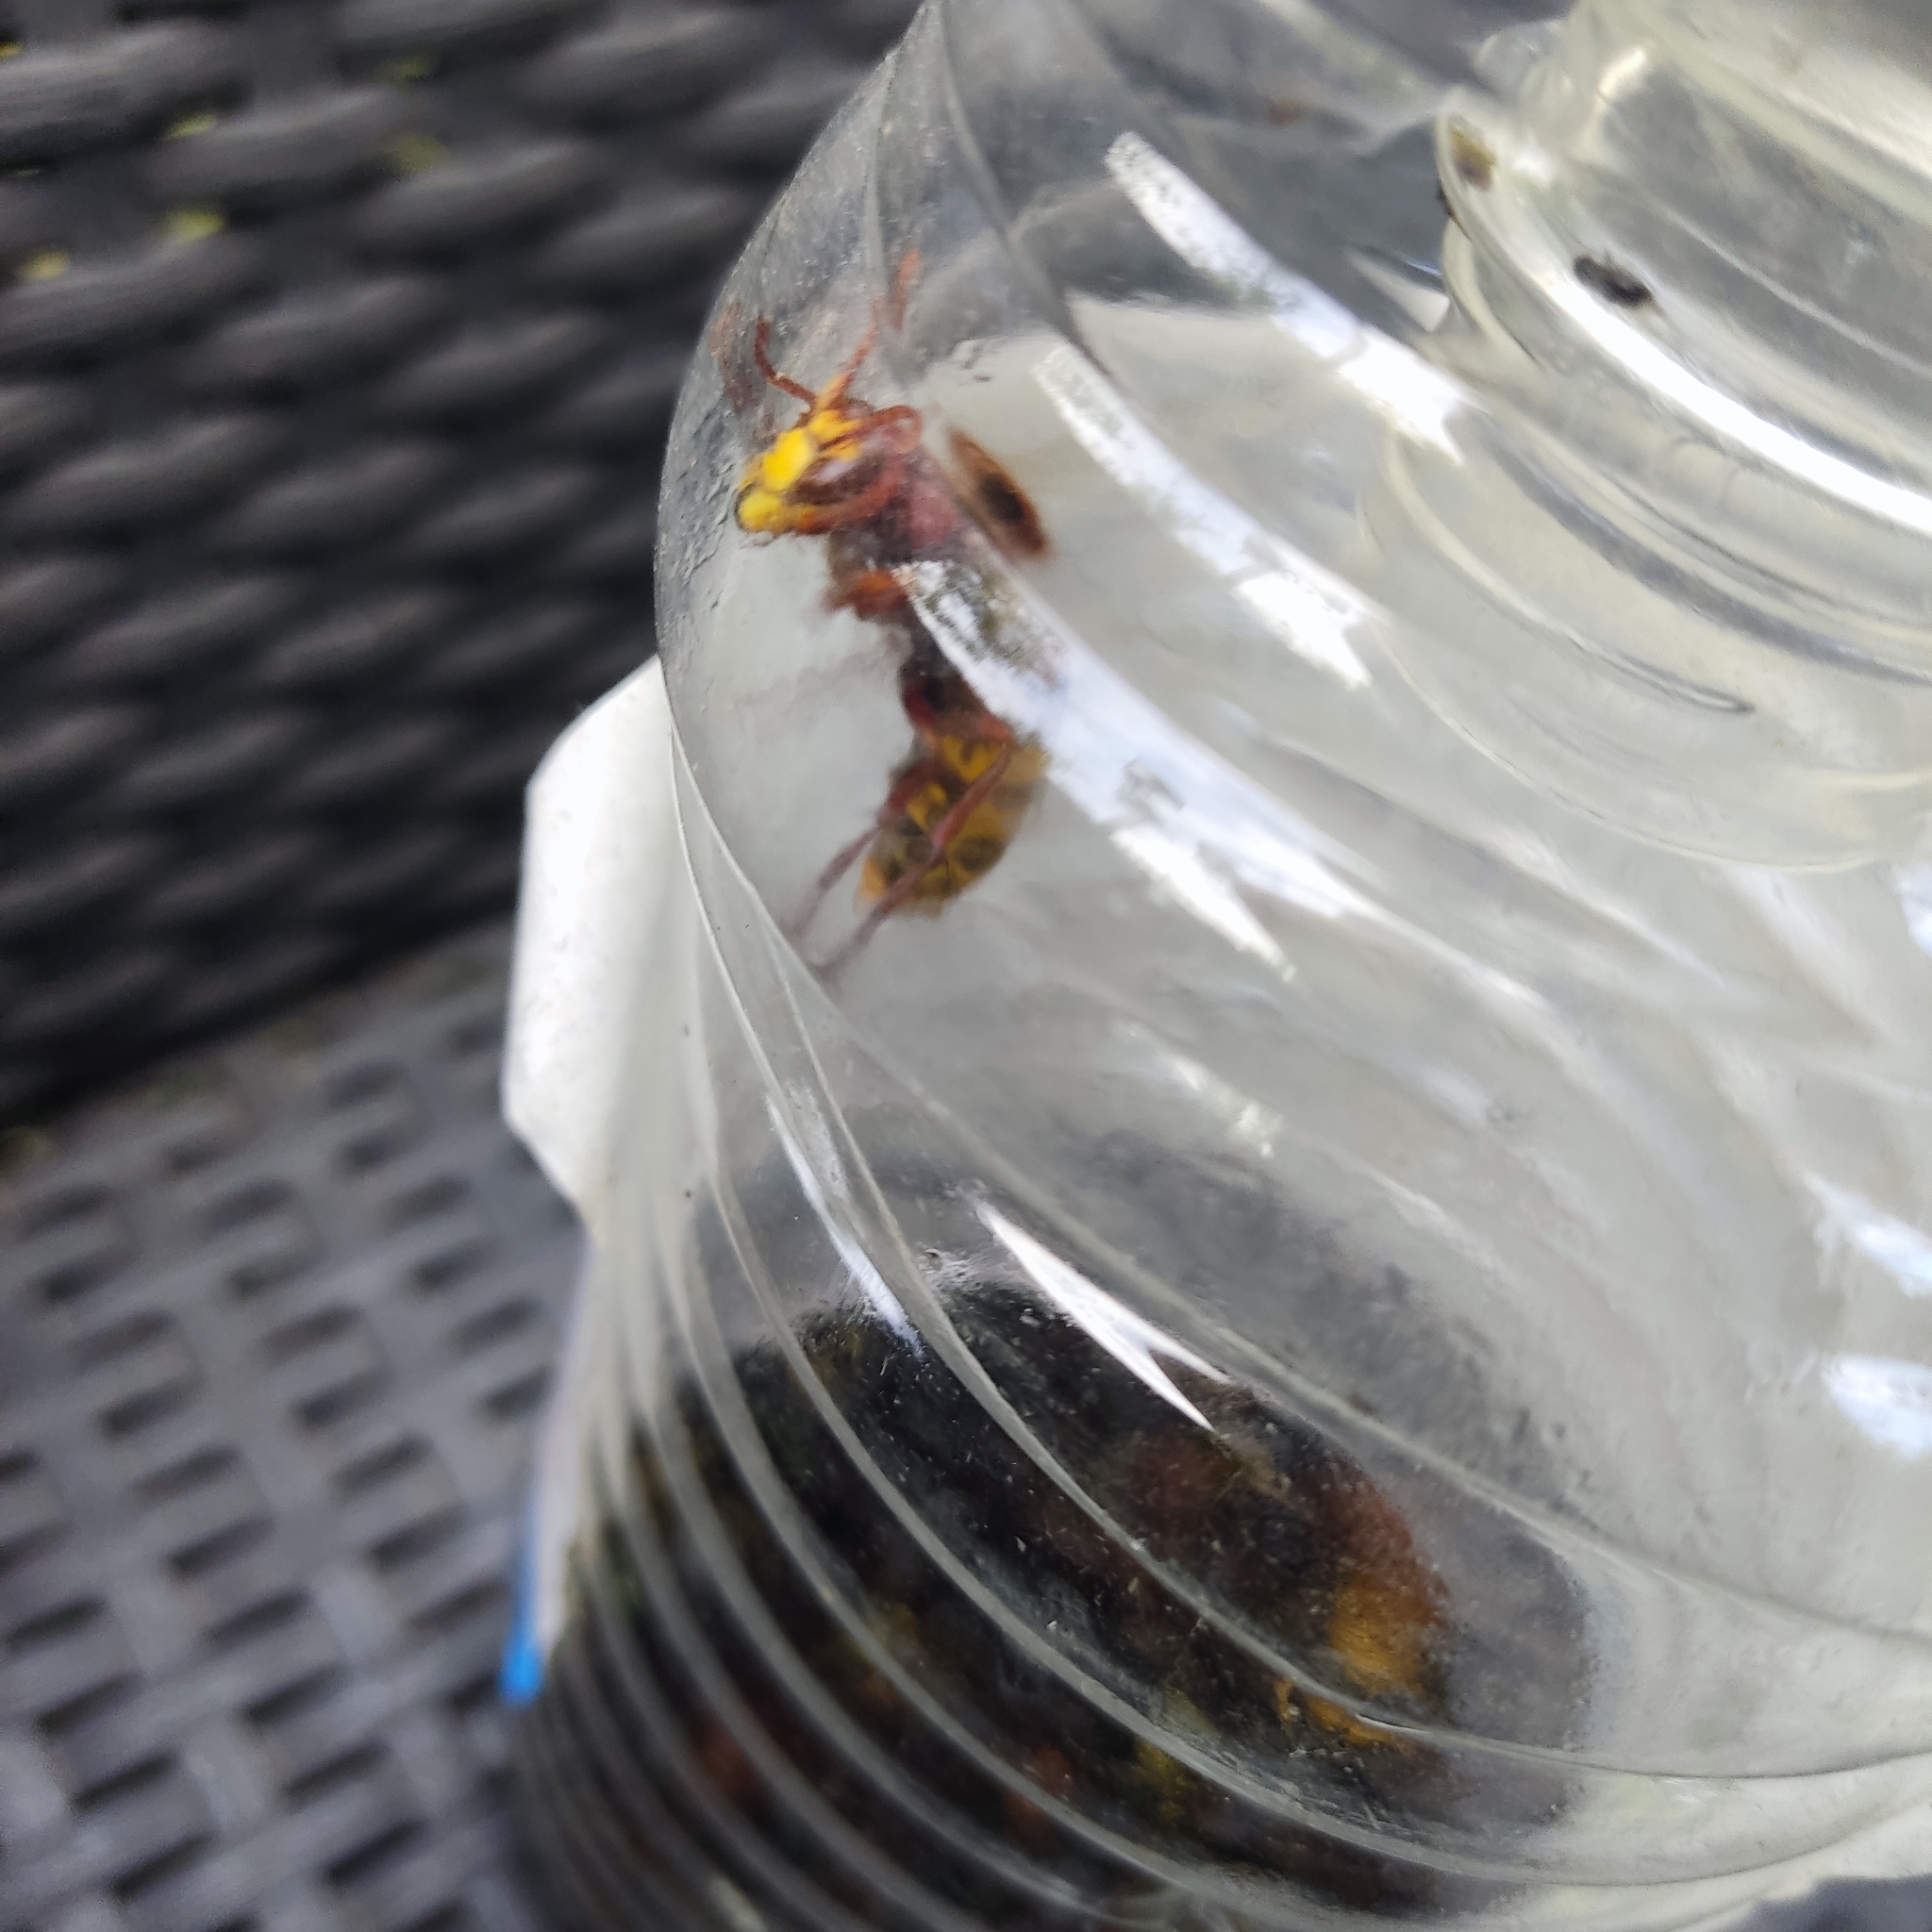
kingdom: Animalia
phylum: Arthropoda
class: Insecta
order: Hymenoptera
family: Vespidae
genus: Vespa
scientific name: Vespa crabro
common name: Hornet
